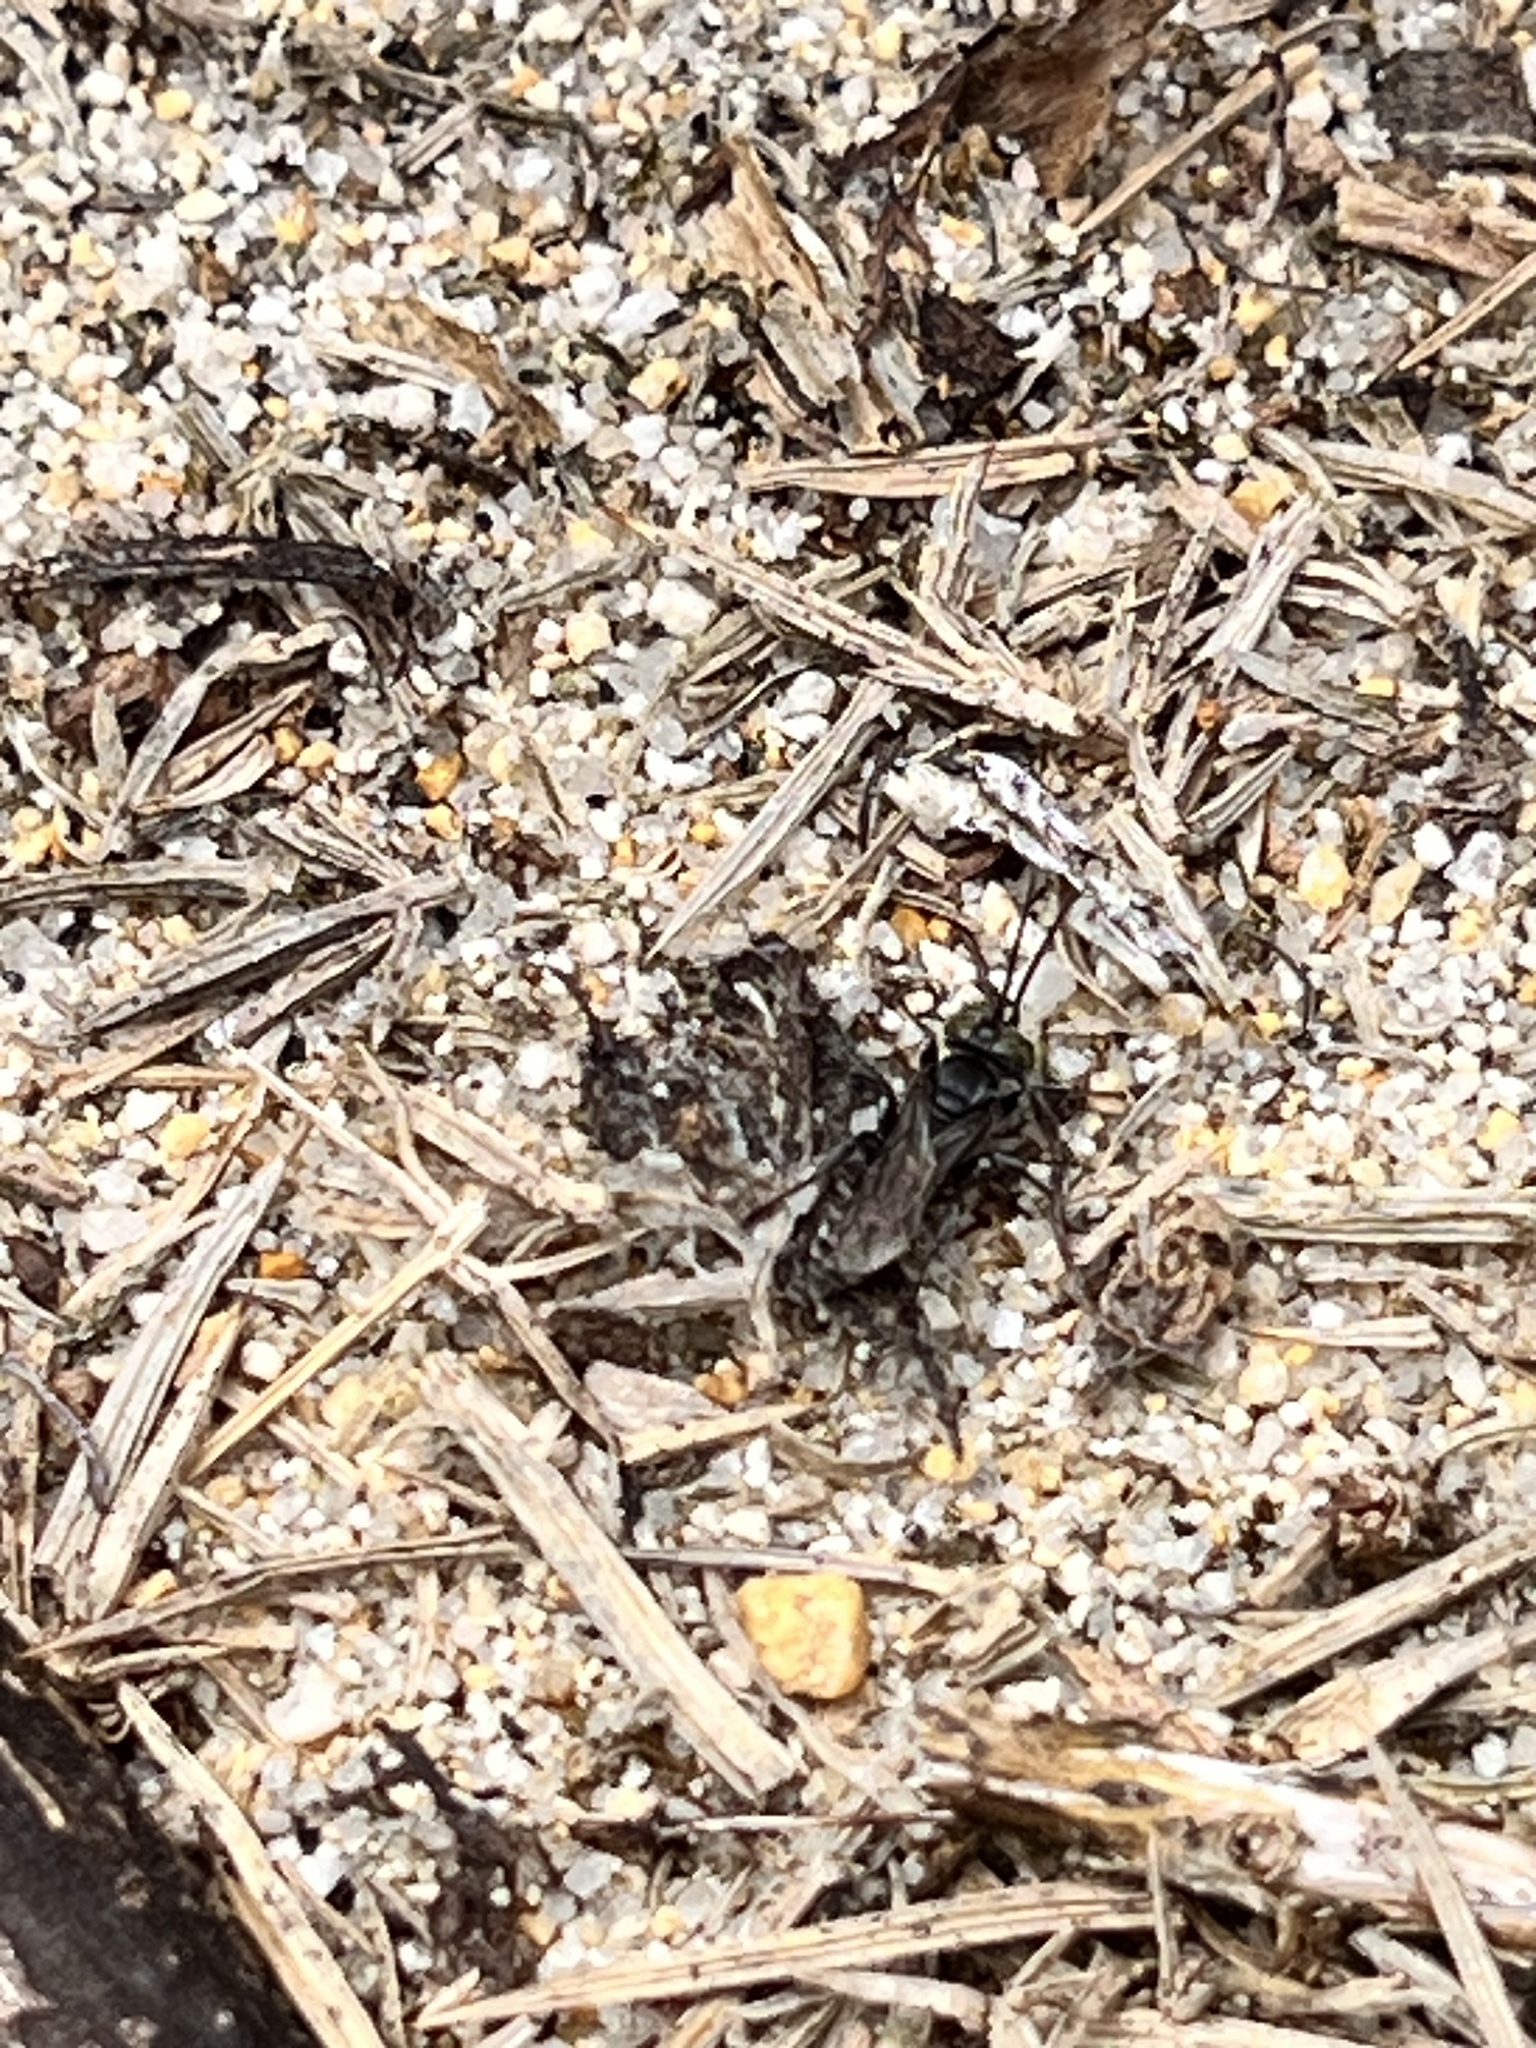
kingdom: Animalia
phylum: Arthropoda
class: Insecta
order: Hymenoptera
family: Crabronidae
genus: Tachysphex
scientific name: Tachysphex nigerrimus
